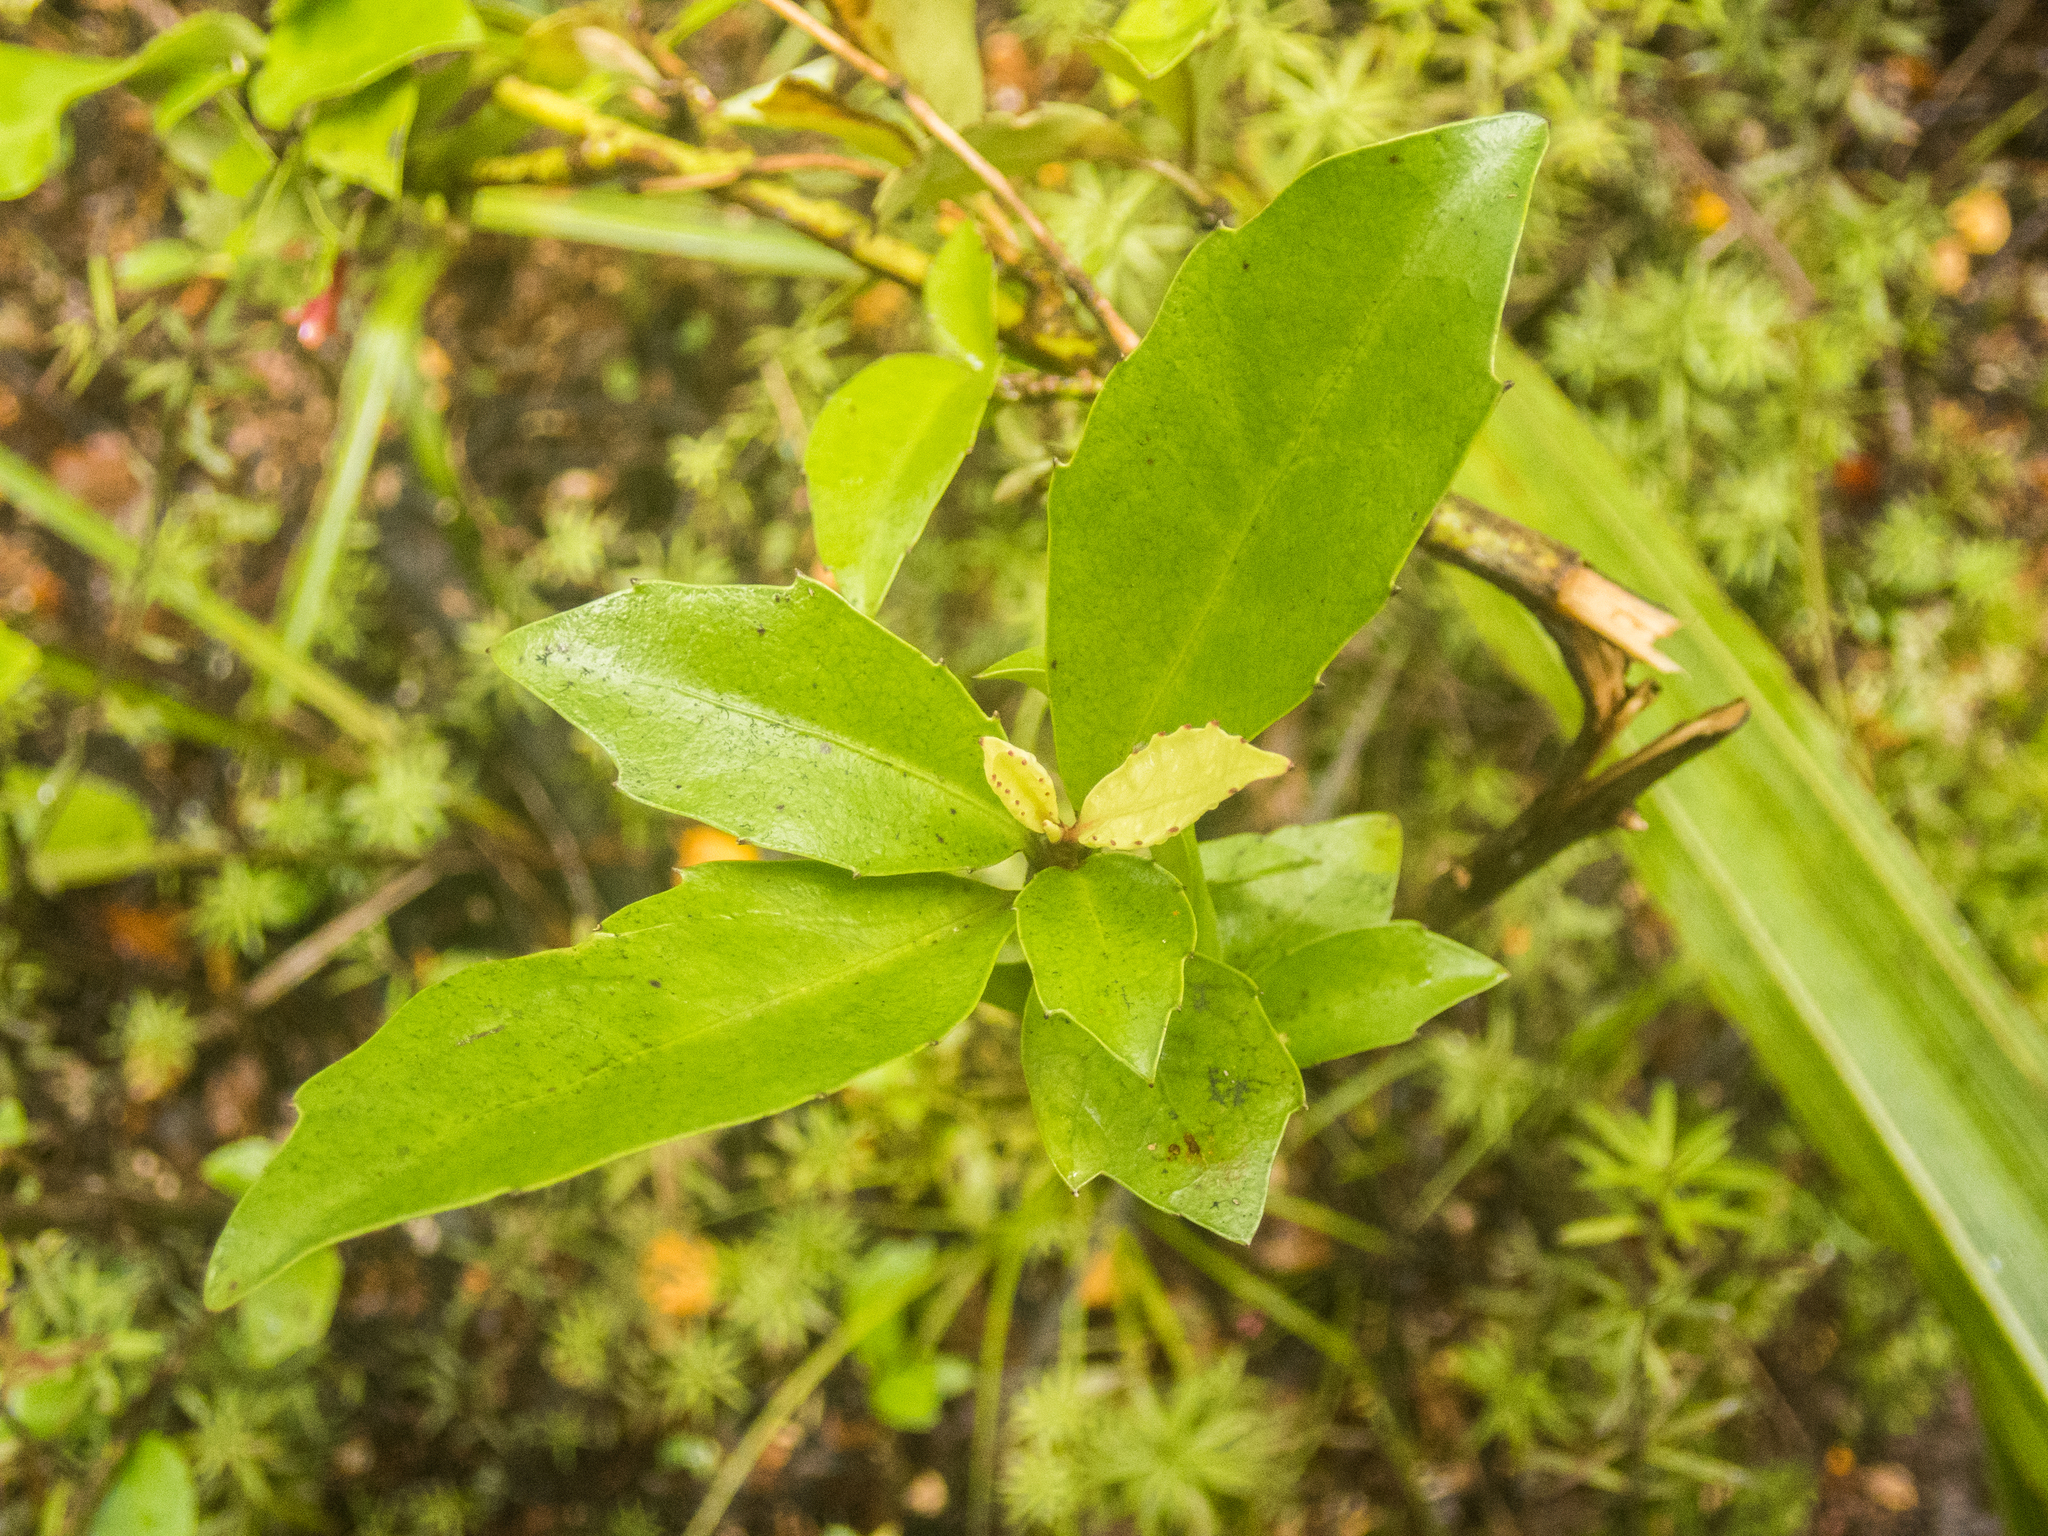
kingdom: Plantae
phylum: Tracheophyta
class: Magnoliopsida
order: Asterales
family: Alseuosmiaceae
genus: Alseuosmia
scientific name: Alseuosmia turneri
